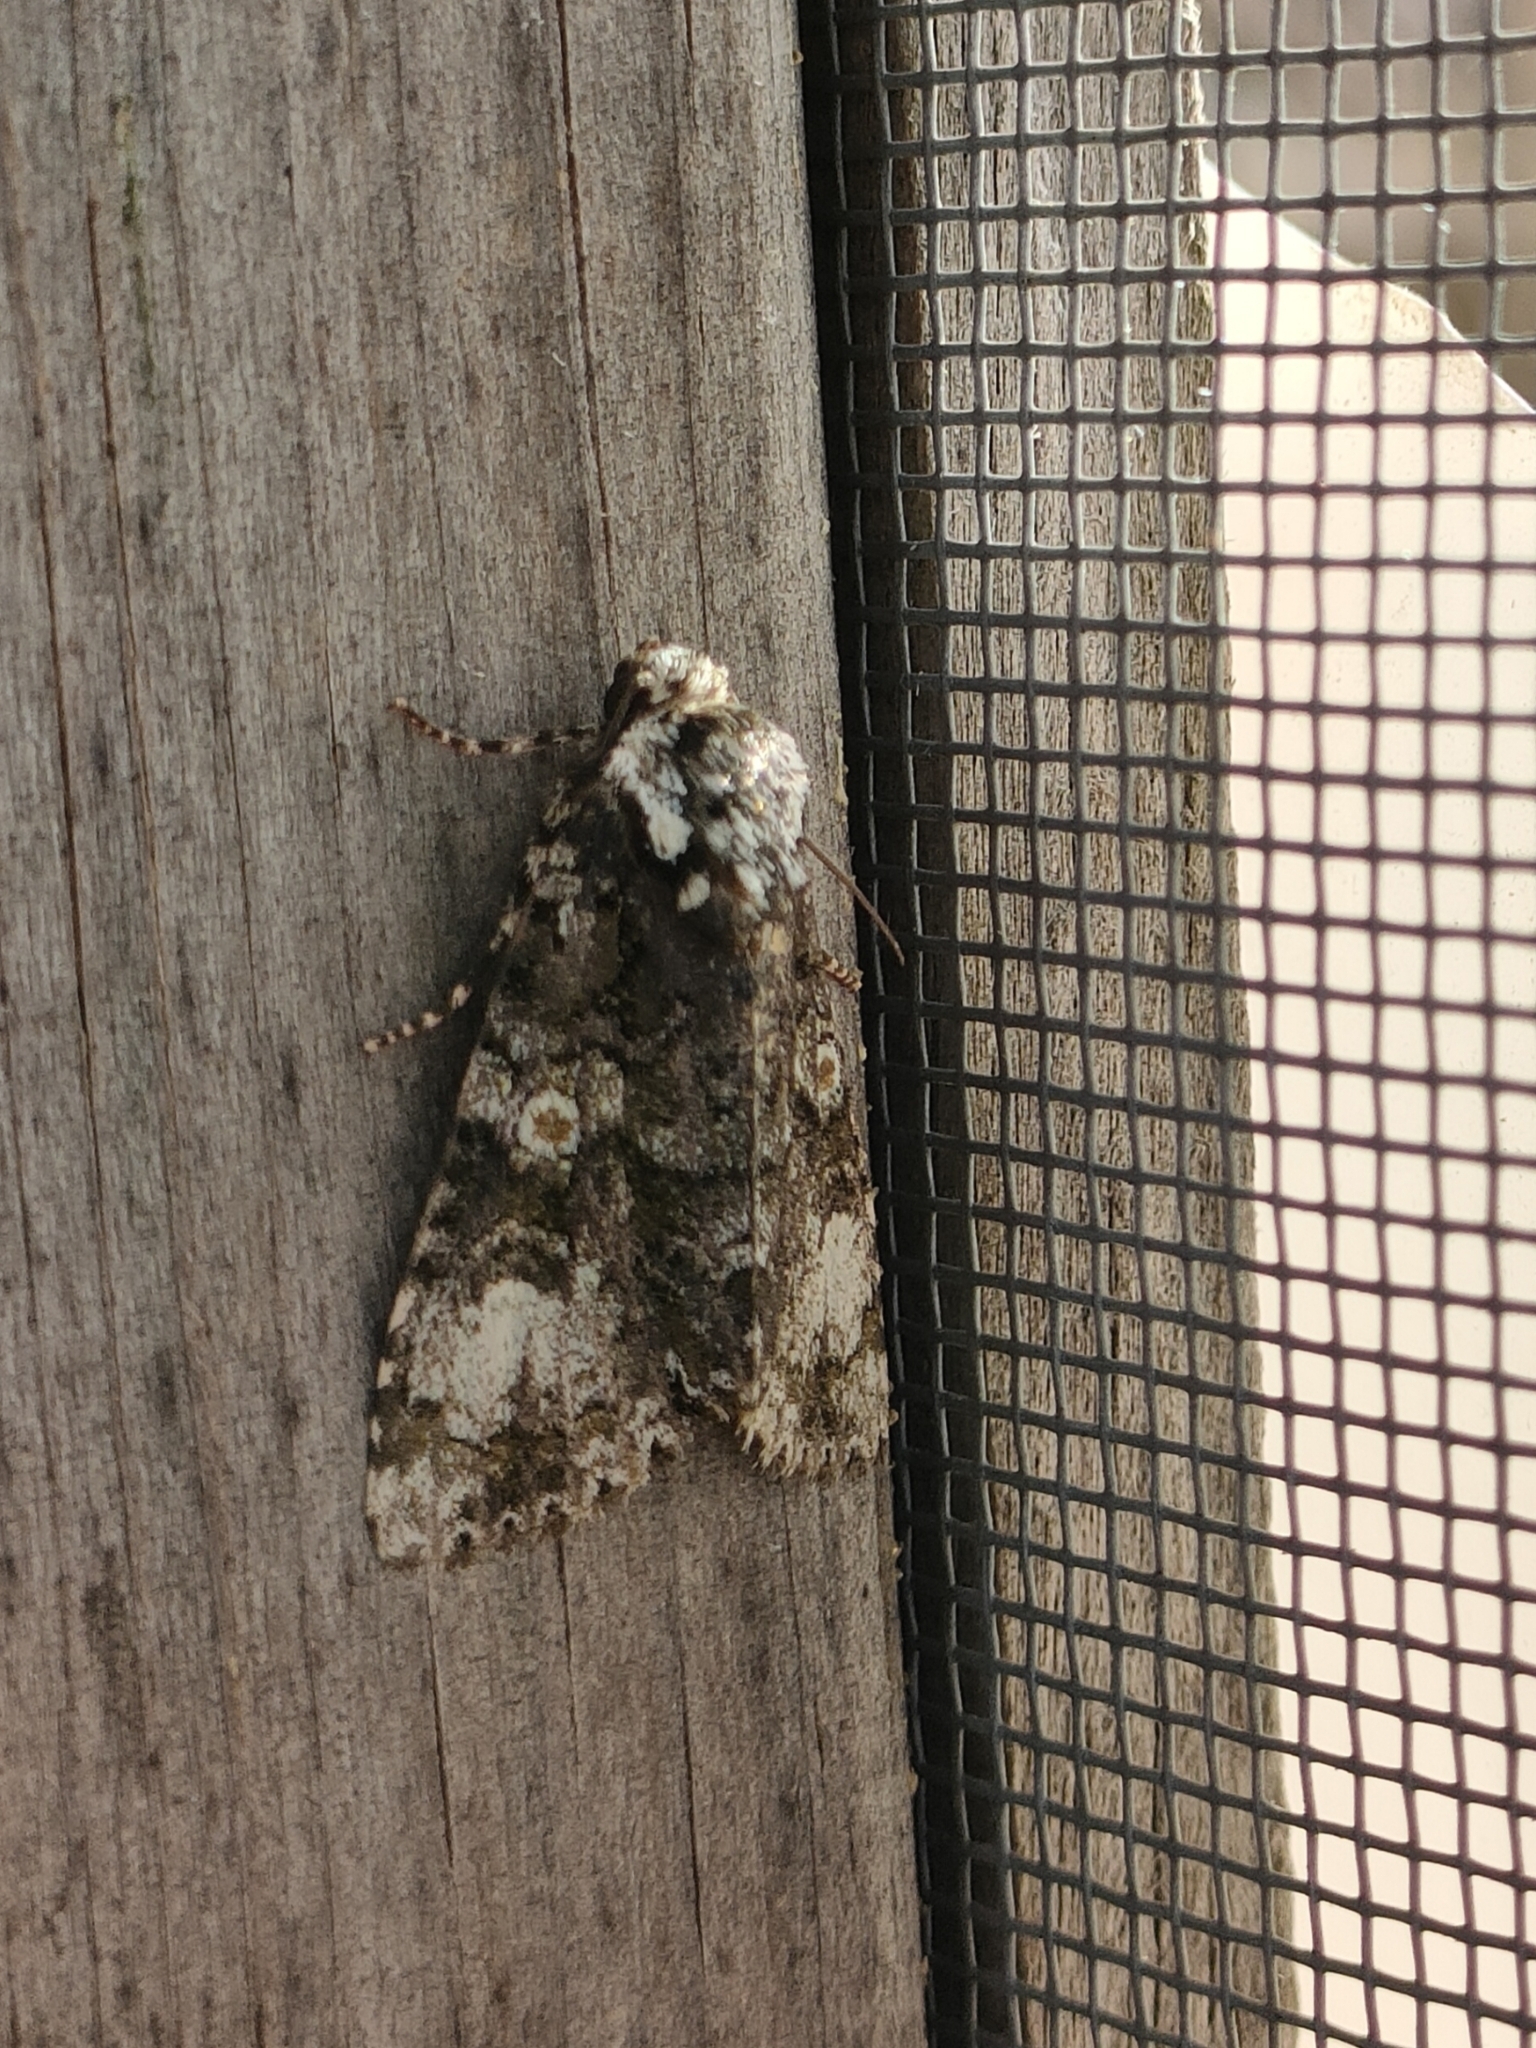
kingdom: Animalia
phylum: Arthropoda
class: Insecta
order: Lepidoptera
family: Noctuidae
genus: Craniophora
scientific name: Craniophora ligustri
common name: Coronet
